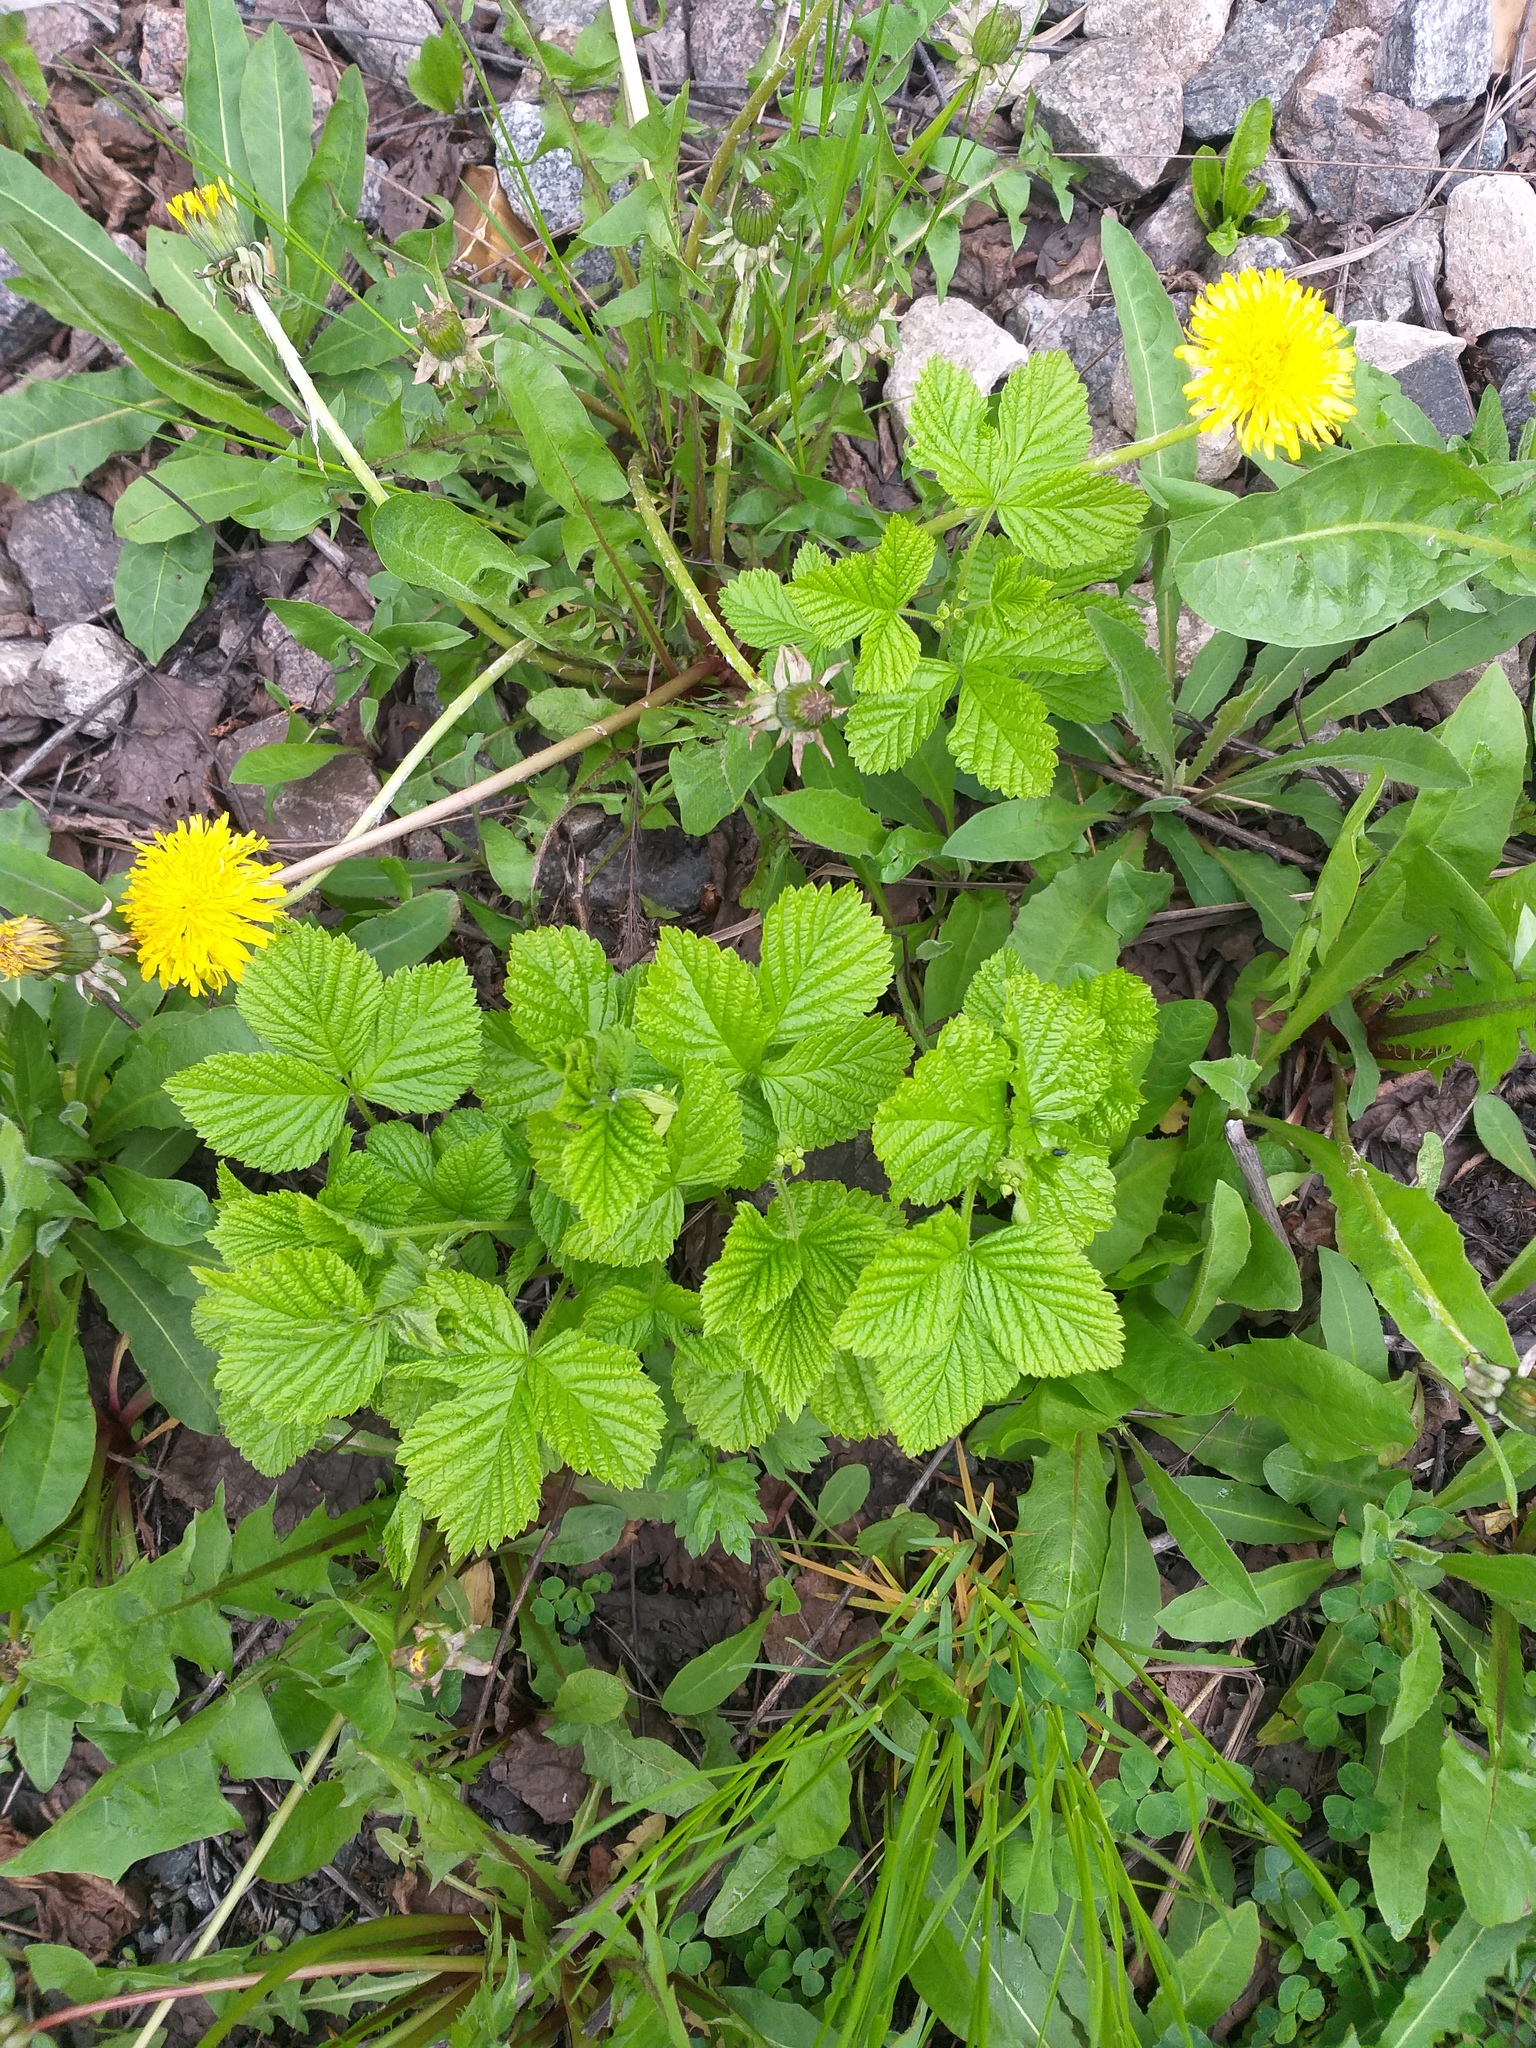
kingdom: Plantae
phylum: Tracheophyta
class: Magnoliopsida
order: Rosales
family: Rosaceae
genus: Rubus
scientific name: Rubus saxatilis
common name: Stone bramble
